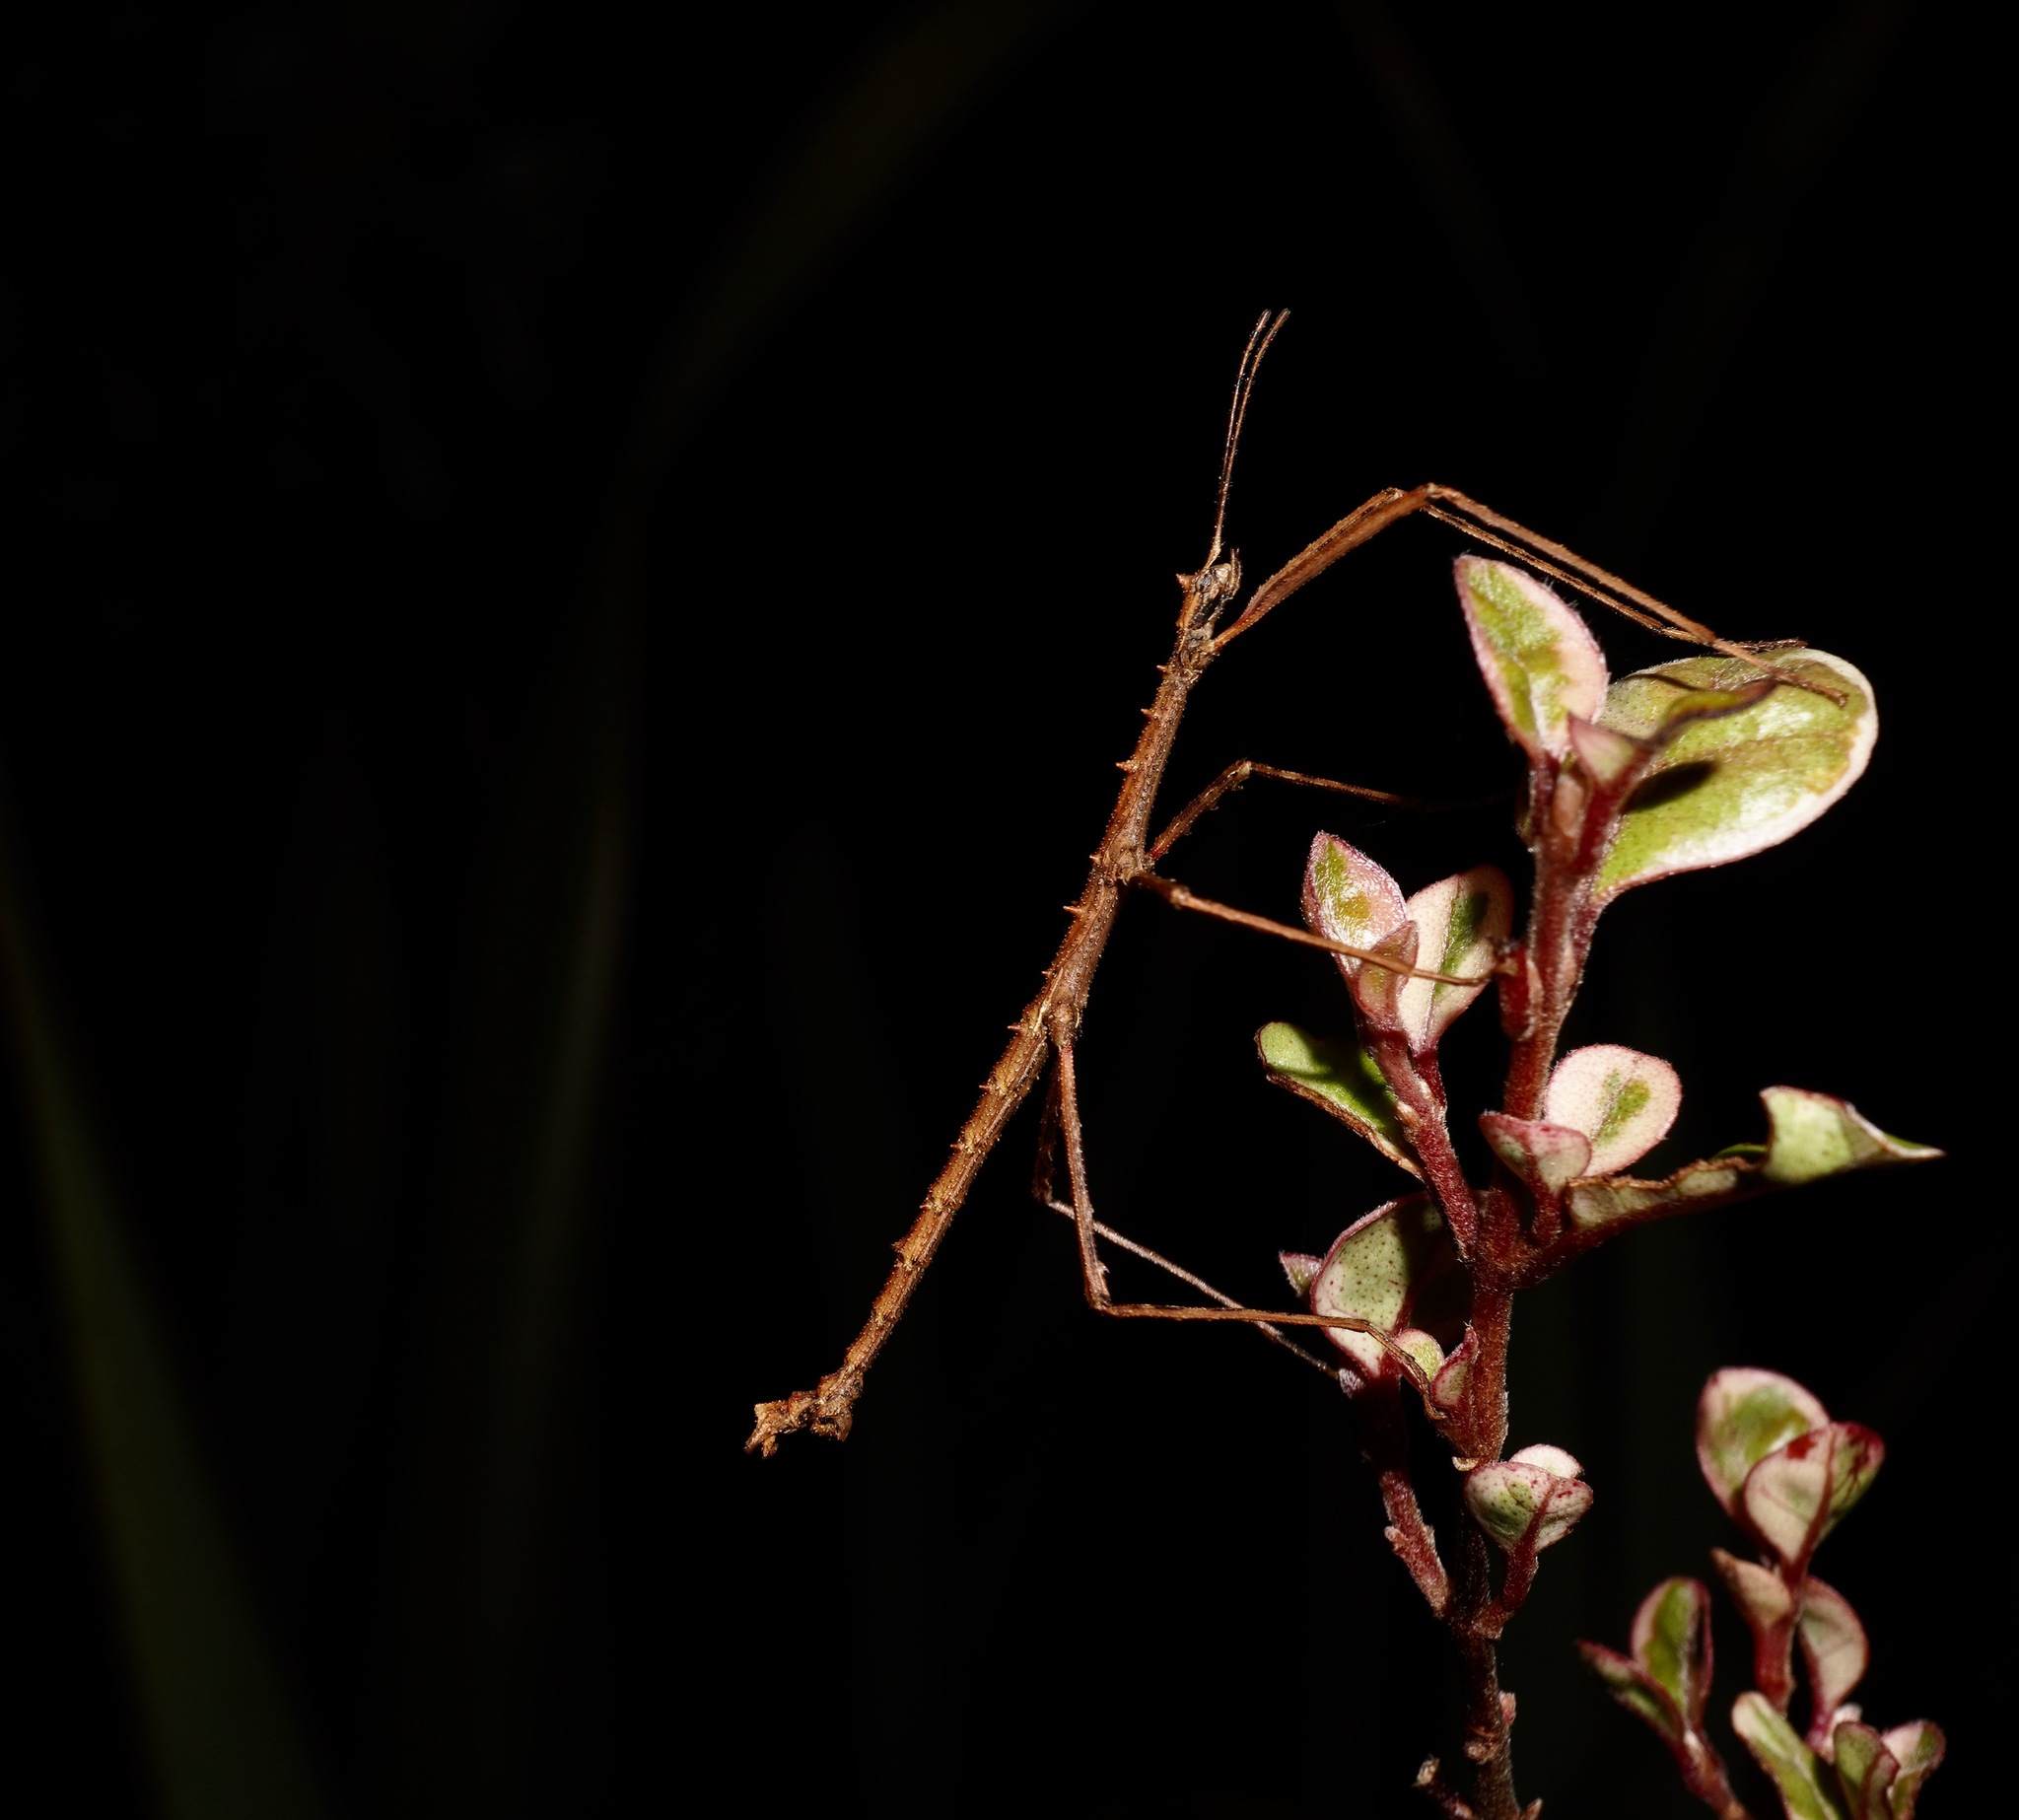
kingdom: Animalia
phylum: Arthropoda
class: Insecta
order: Phasmida
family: Phasmatidae
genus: Micrarchus
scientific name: Micrarchus hystriculeus
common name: The lesser spiny stick insect
